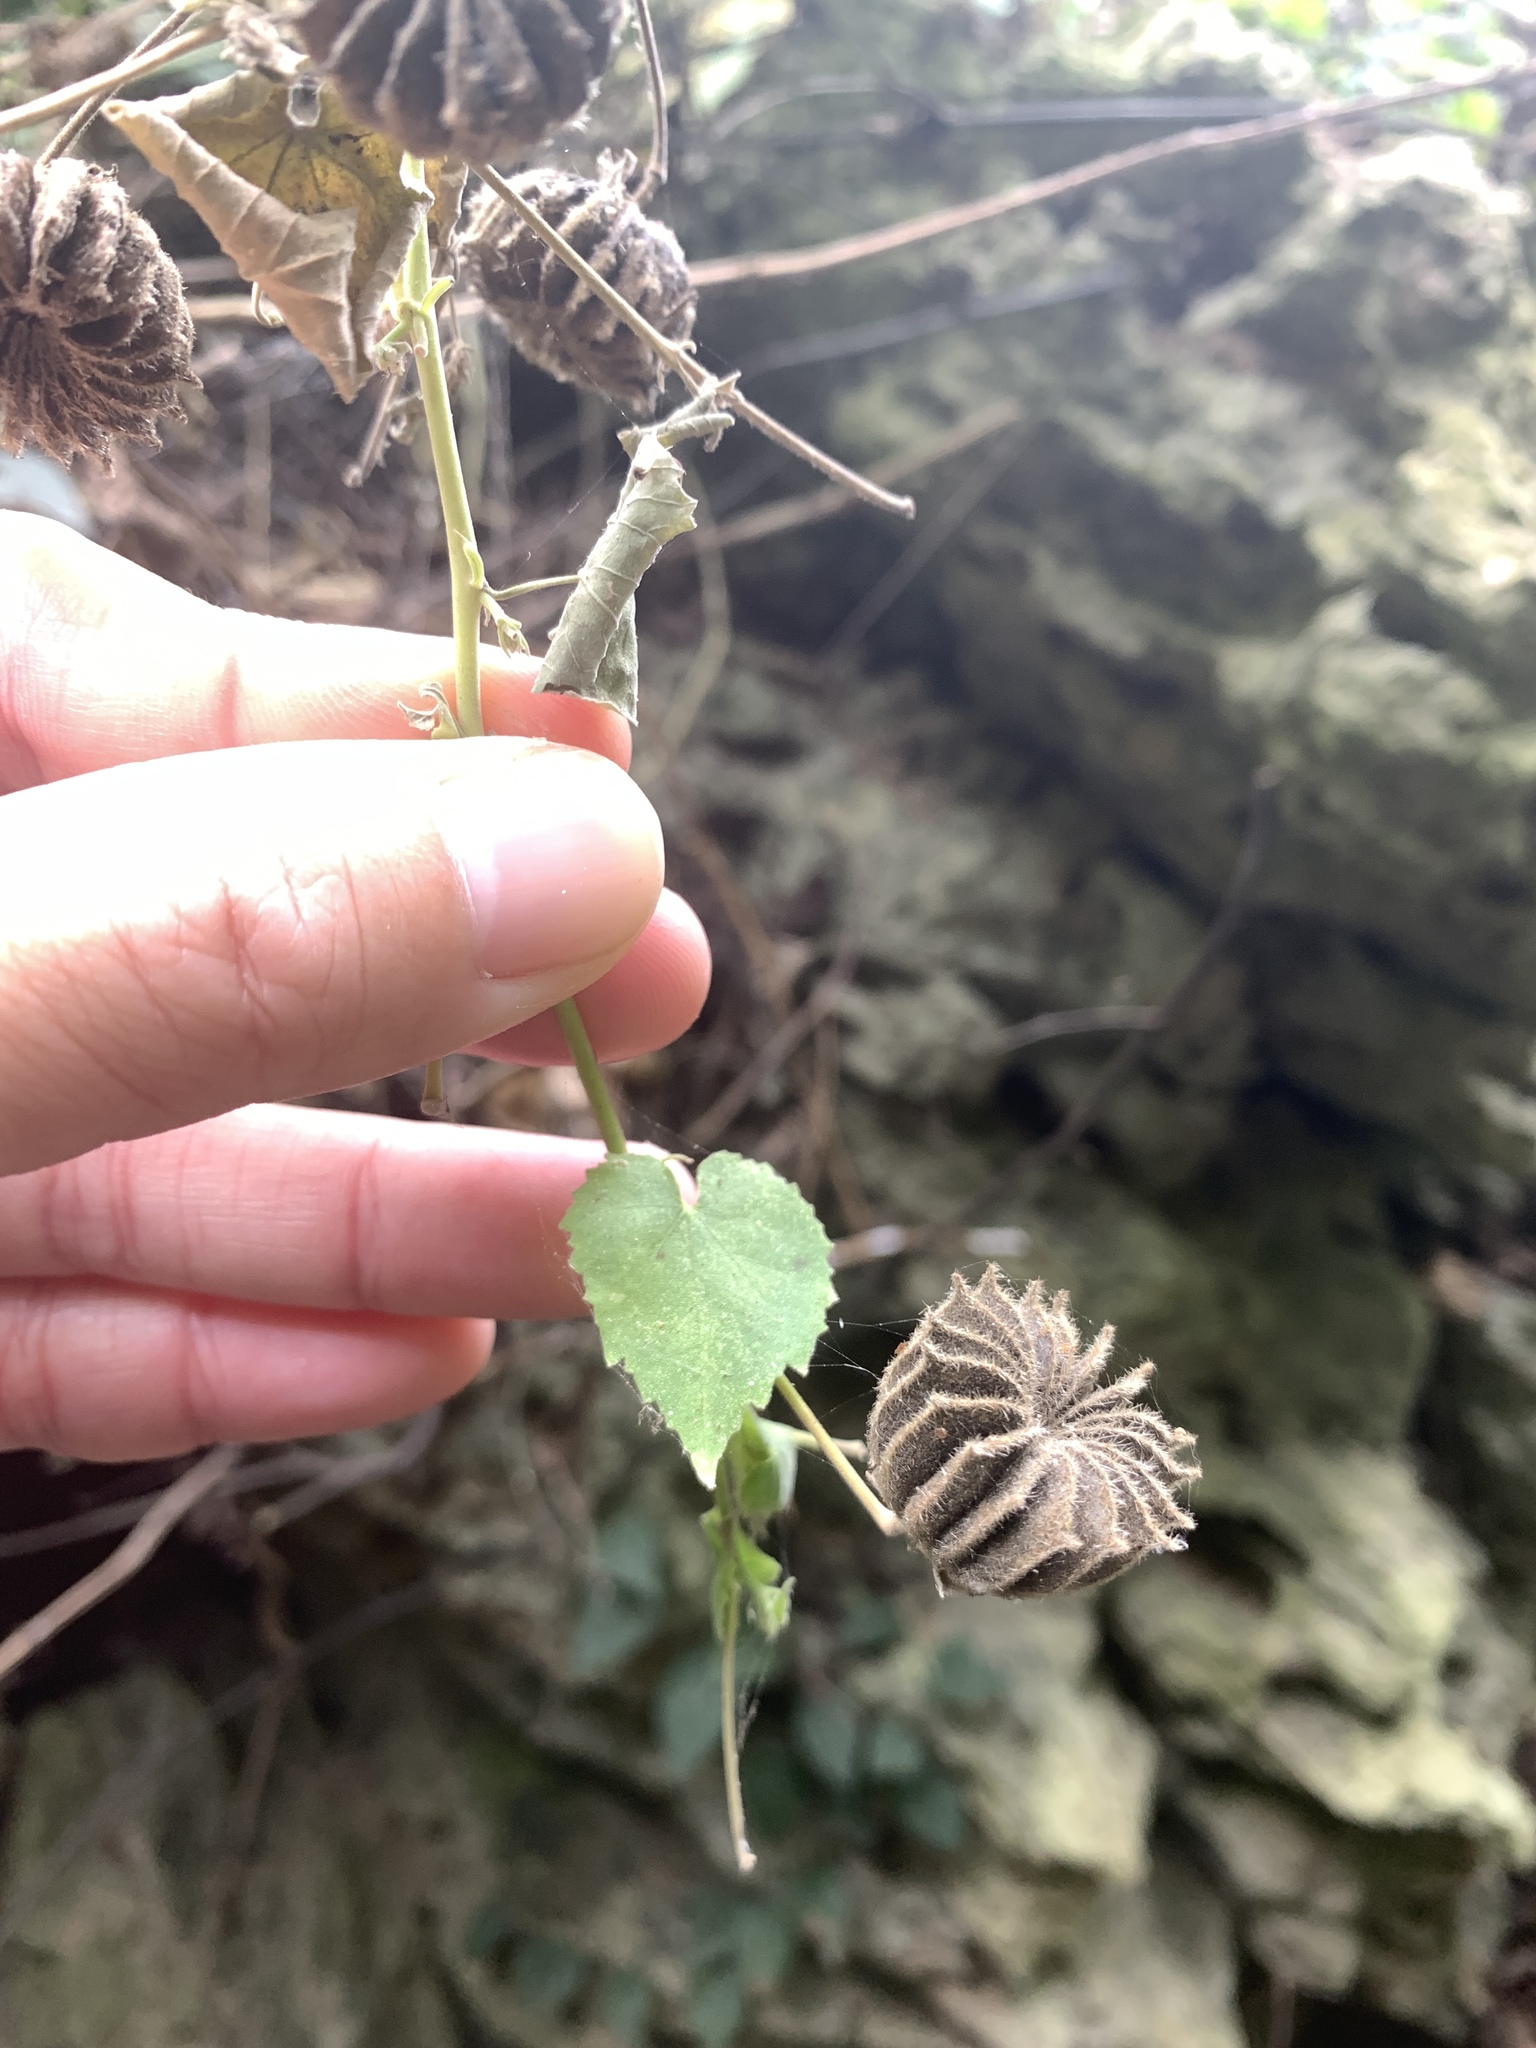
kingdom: Plantae
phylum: Tracheophyta
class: Magnoliopsida
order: Malvales
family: Malvaceae
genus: Abutilon
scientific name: Abutilon indicum
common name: Indian abutilon
